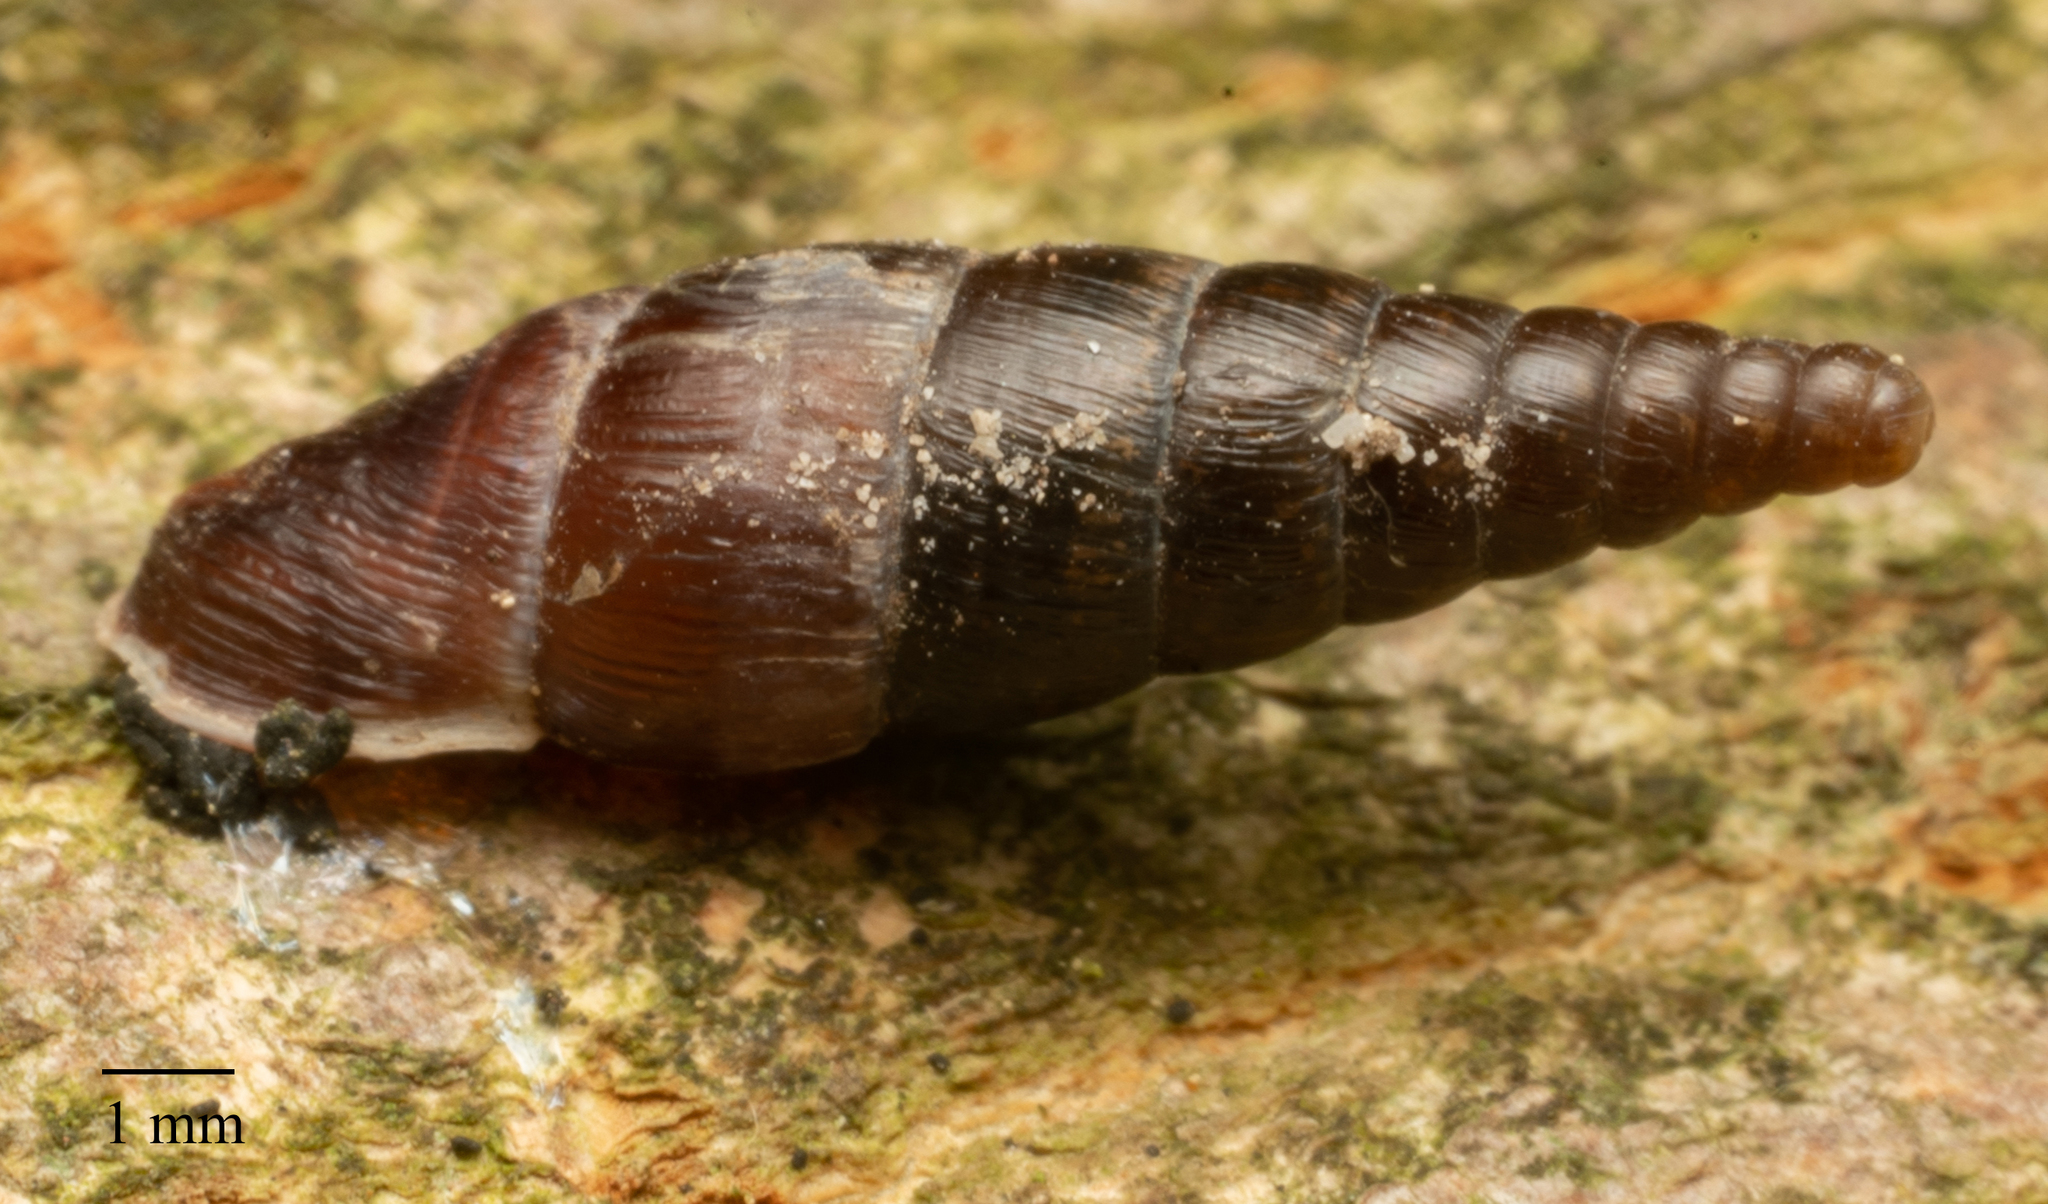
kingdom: Animalia
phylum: Mollusca
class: Gastropoda
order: Stylommatophora
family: Clausiliidae
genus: Cochlodina
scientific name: Cochlodina laminata
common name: Plaited door snail
